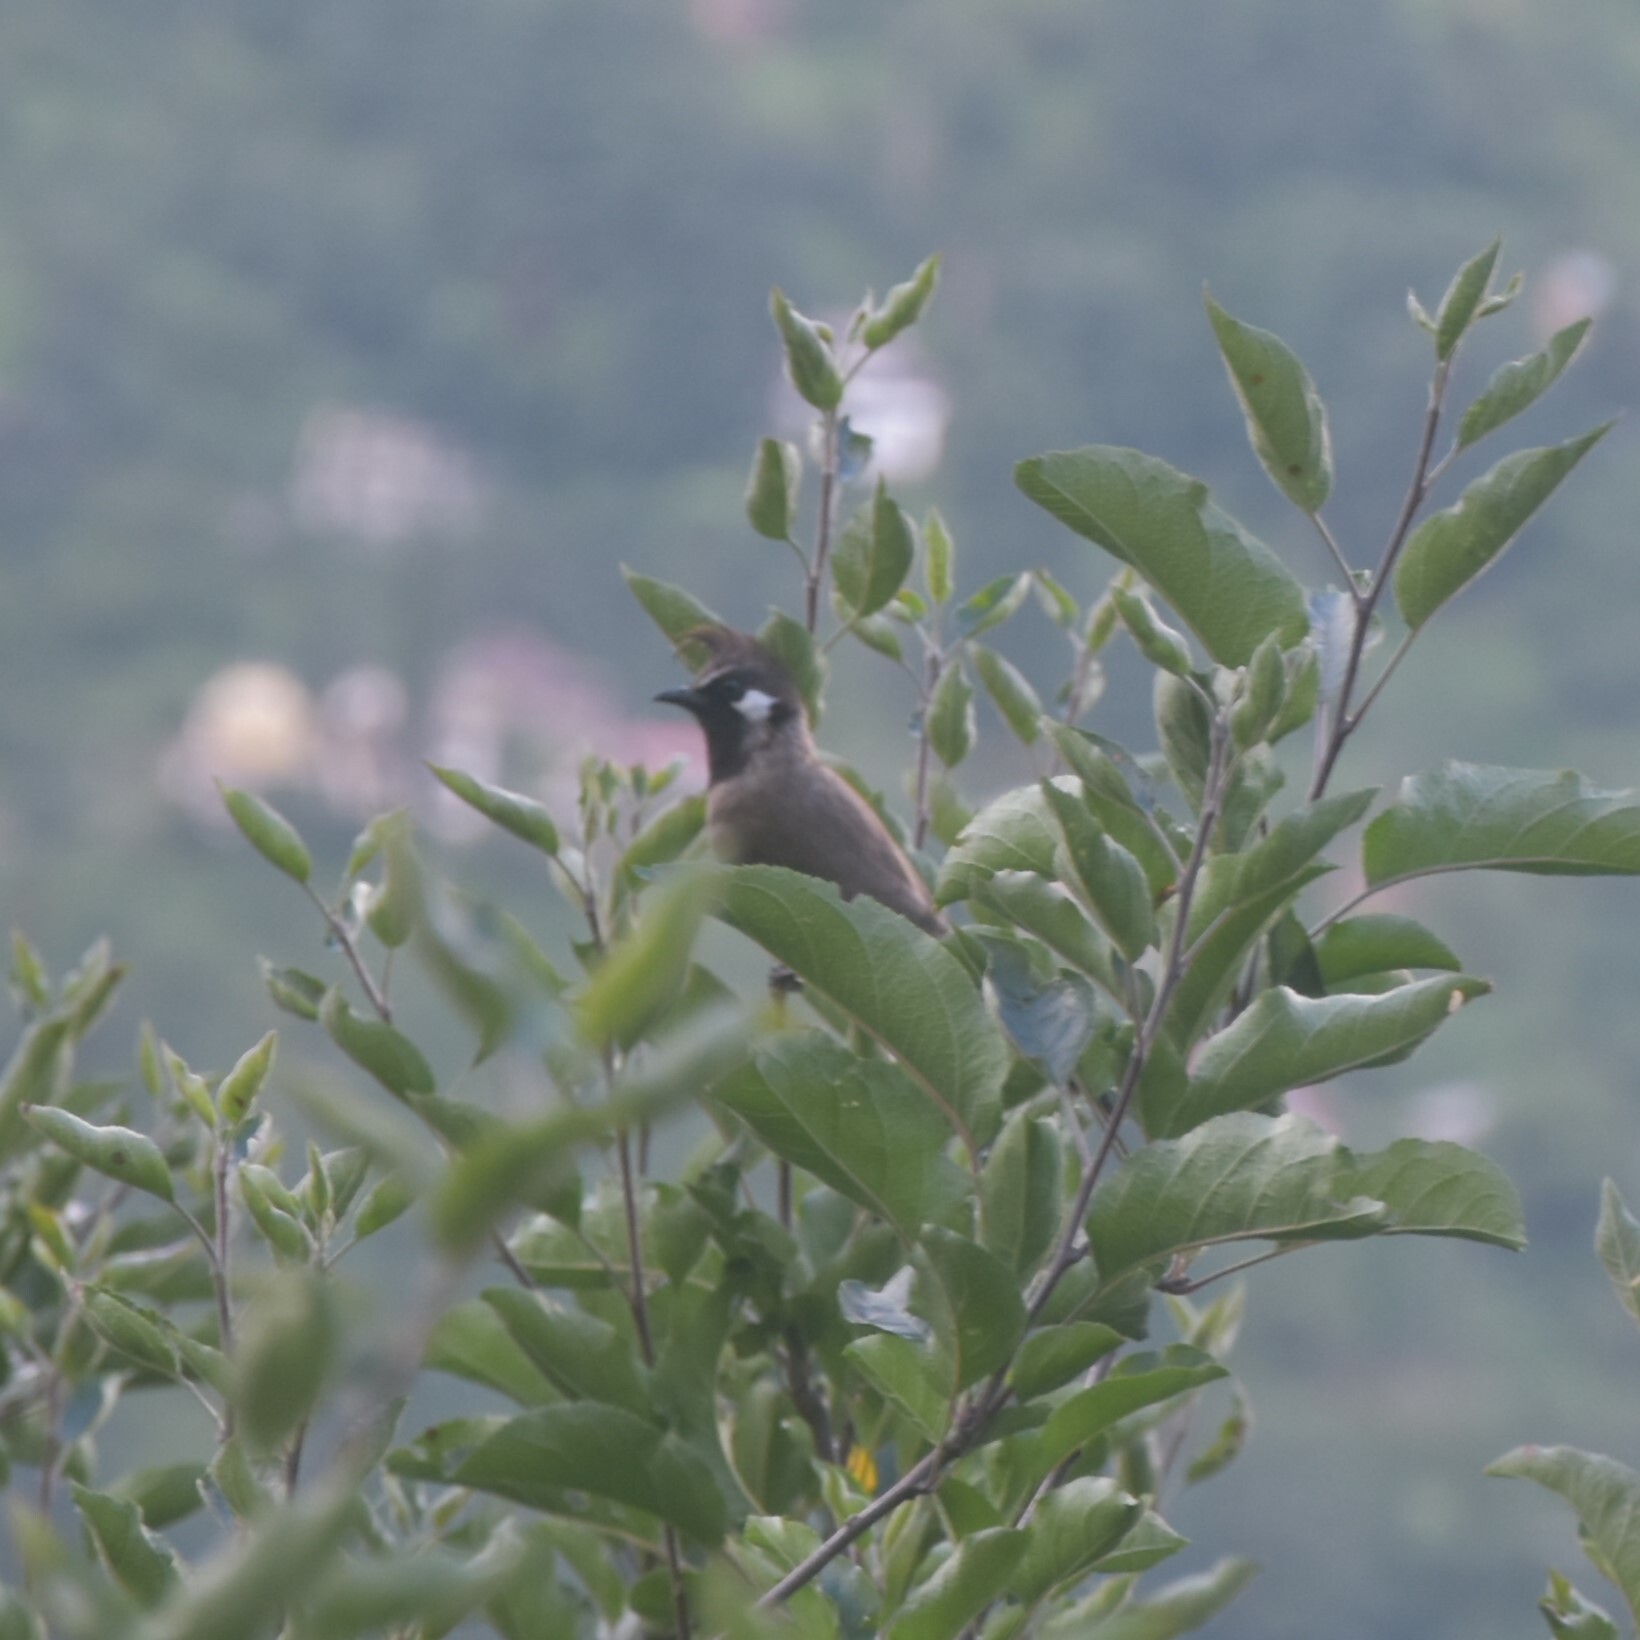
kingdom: Animalia
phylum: Chordata
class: Aves
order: Passeriformes
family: Pycnonotidae
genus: Pycnonotus
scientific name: Pycnonotus leucogenys
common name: Himalayan bulbul
